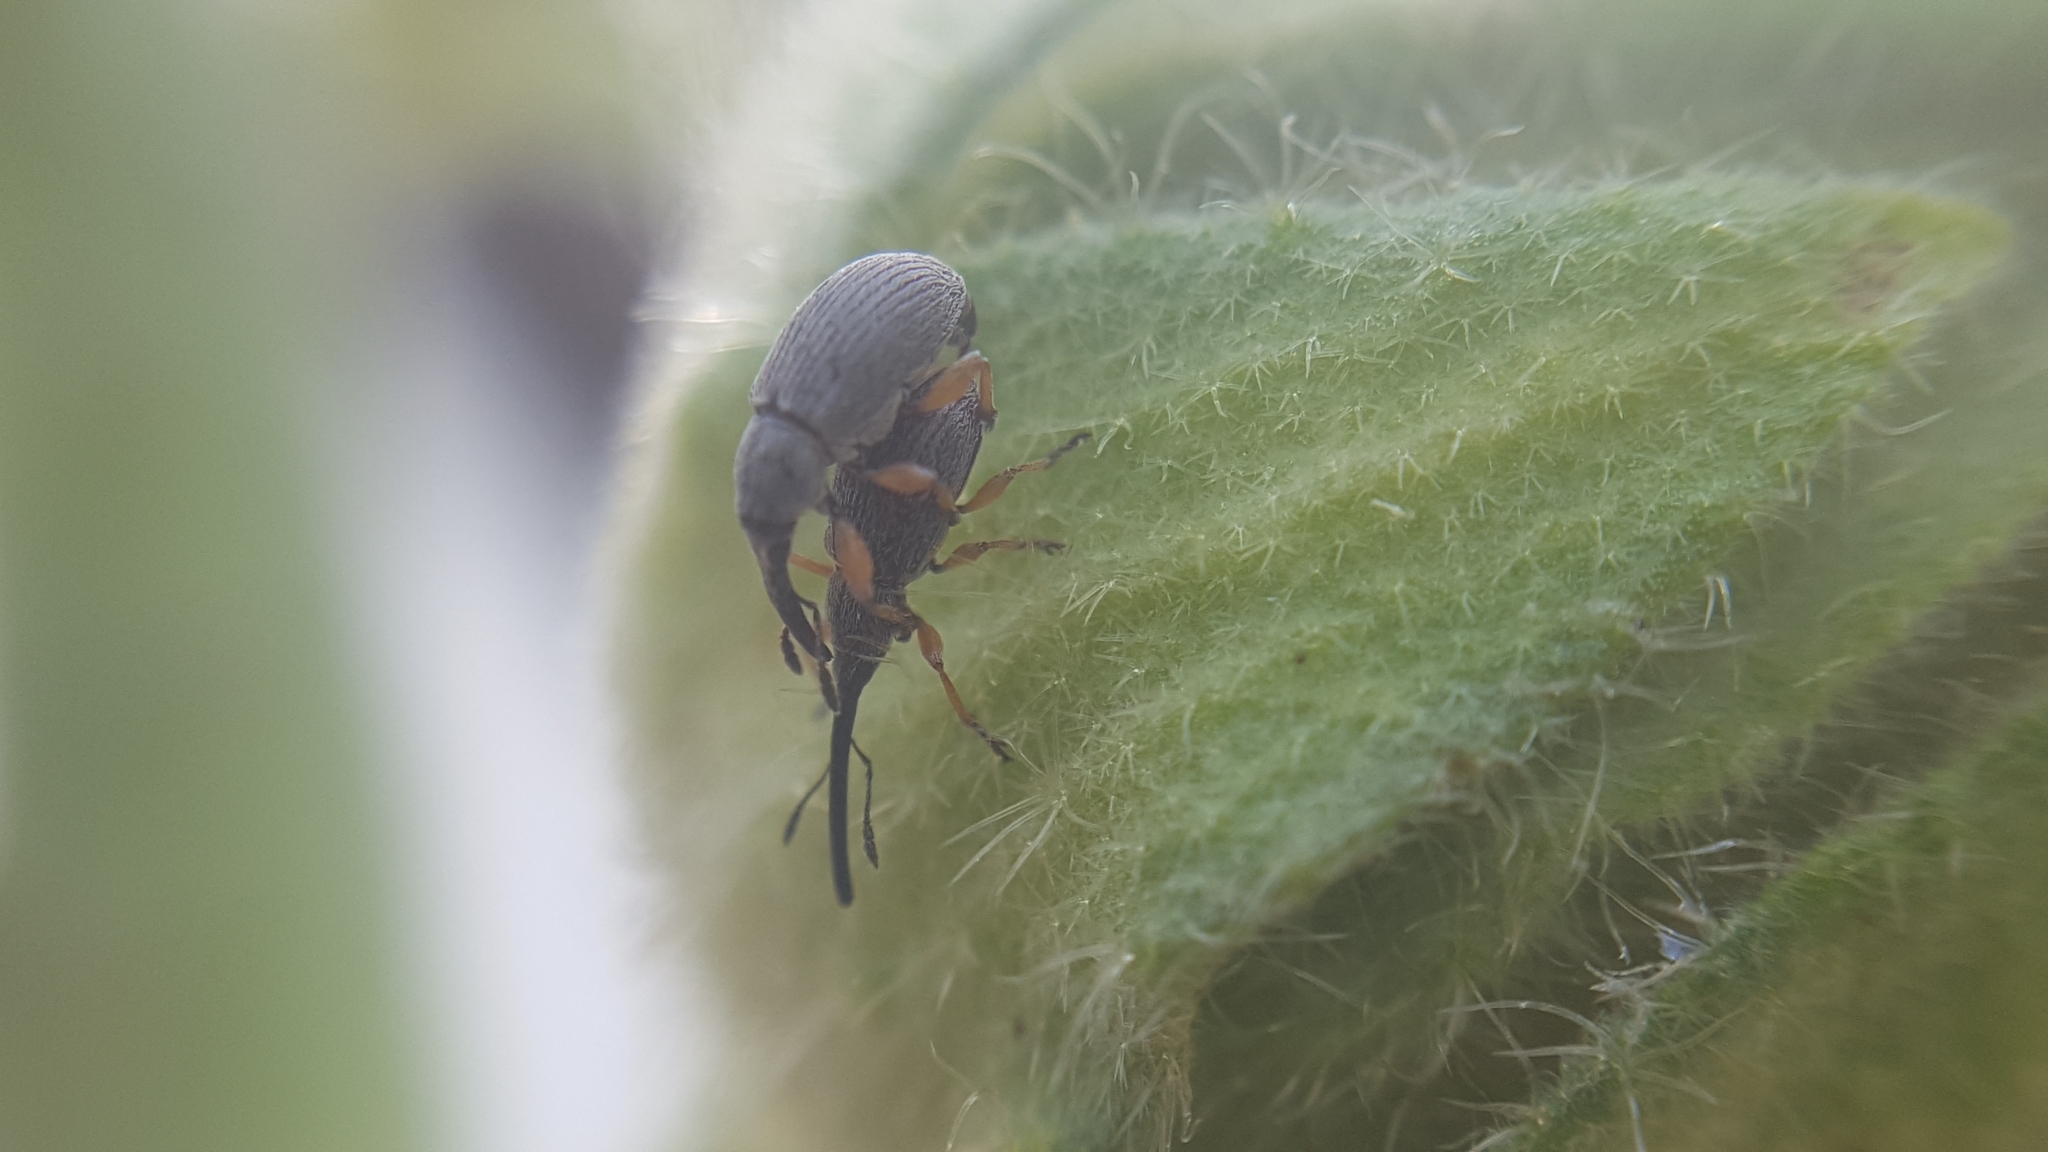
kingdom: Animalia
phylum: Arthropoda
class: Insecta
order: Coleoptera
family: Brentidae
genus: Rhopalapion
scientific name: Rhopalapion longirostre
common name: Hollyhock weevil
